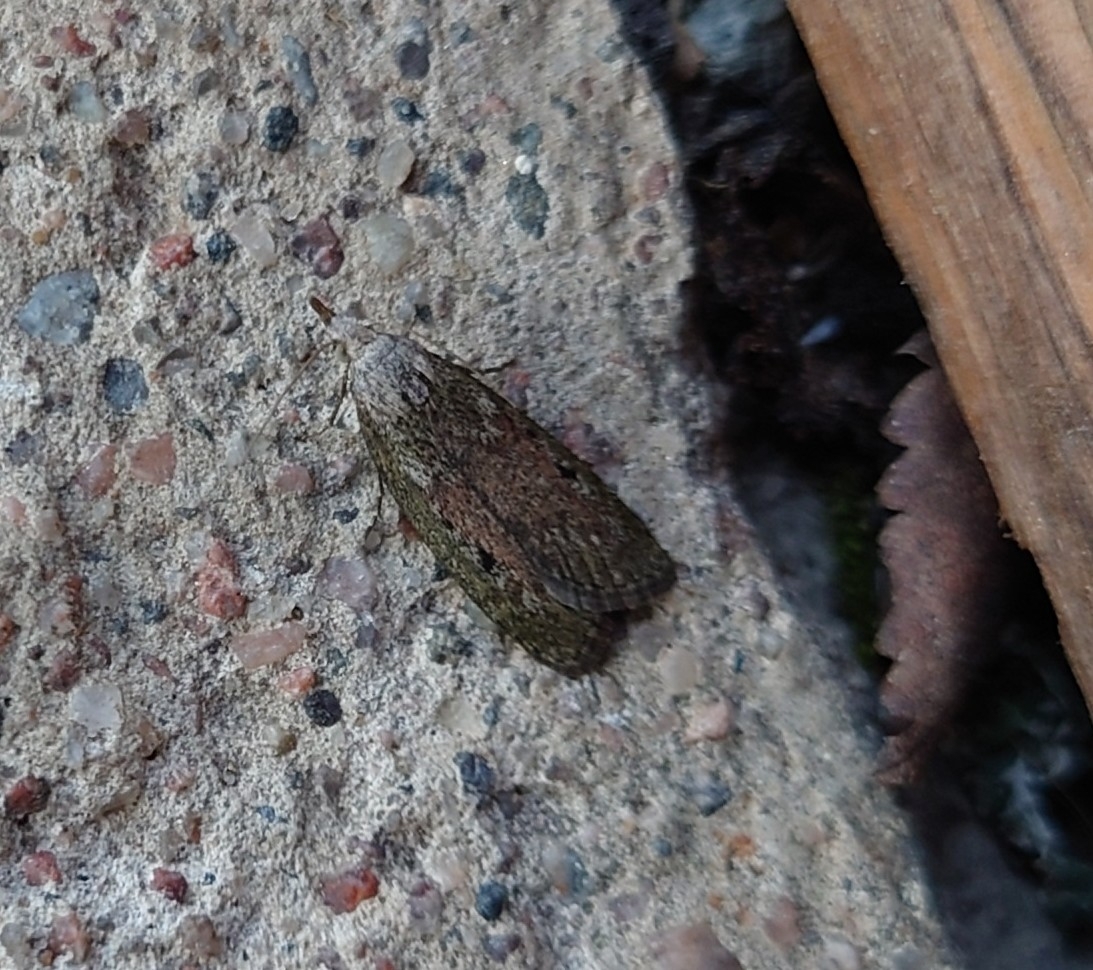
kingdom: Animalia
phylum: Arthropoda
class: Insecta
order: Lepidoptera
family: Pyralidae
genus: Aphomia
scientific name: Aphomia sociella
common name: Bee moth
